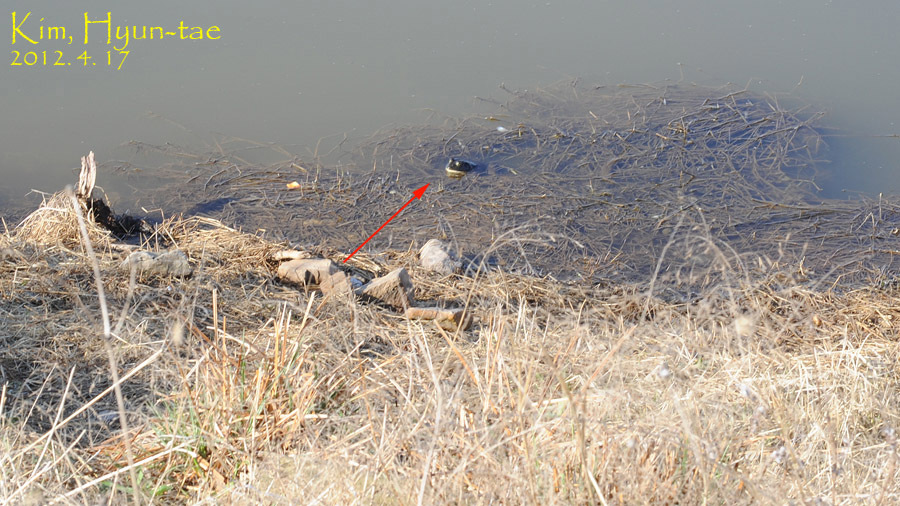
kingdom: Animalia
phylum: Chordata
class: Amphibia
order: Anura
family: Ranidae
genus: Lithobates
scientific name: Lithobates catesbeianus
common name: American bullfrog
